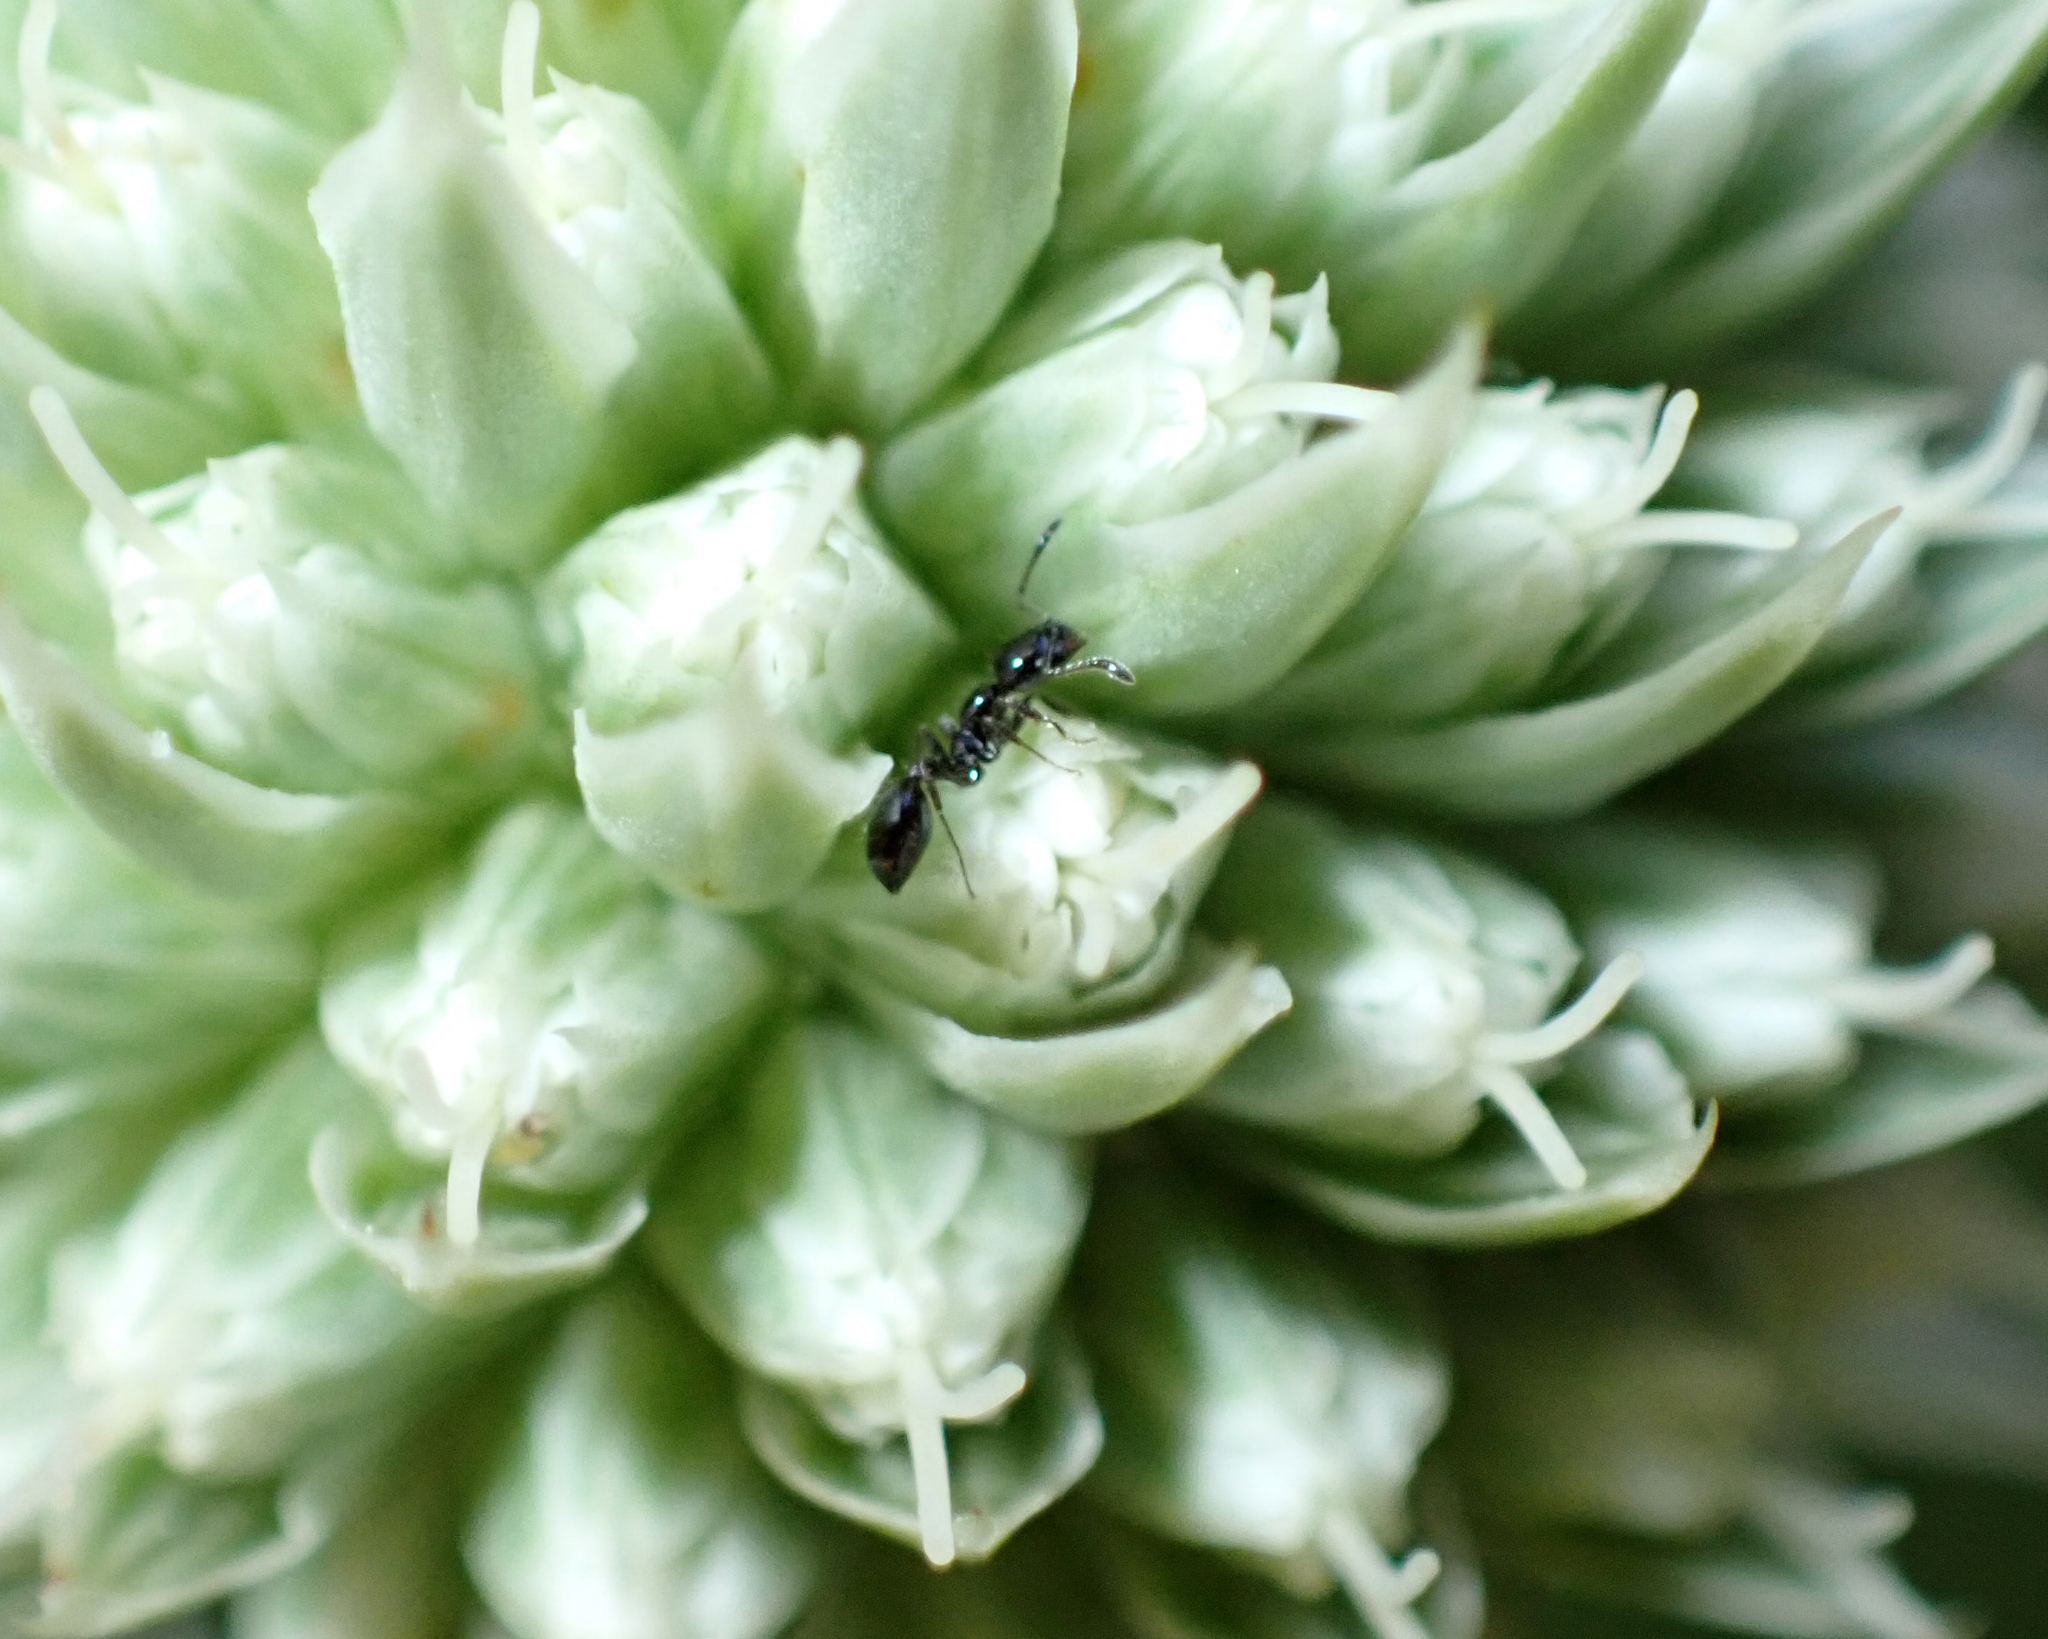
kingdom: Animalia
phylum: Arthropoda
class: Insecta
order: Hymenoptera
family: Formicidae
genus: Monomorium
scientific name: Monomorium minimum
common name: Little black ant
